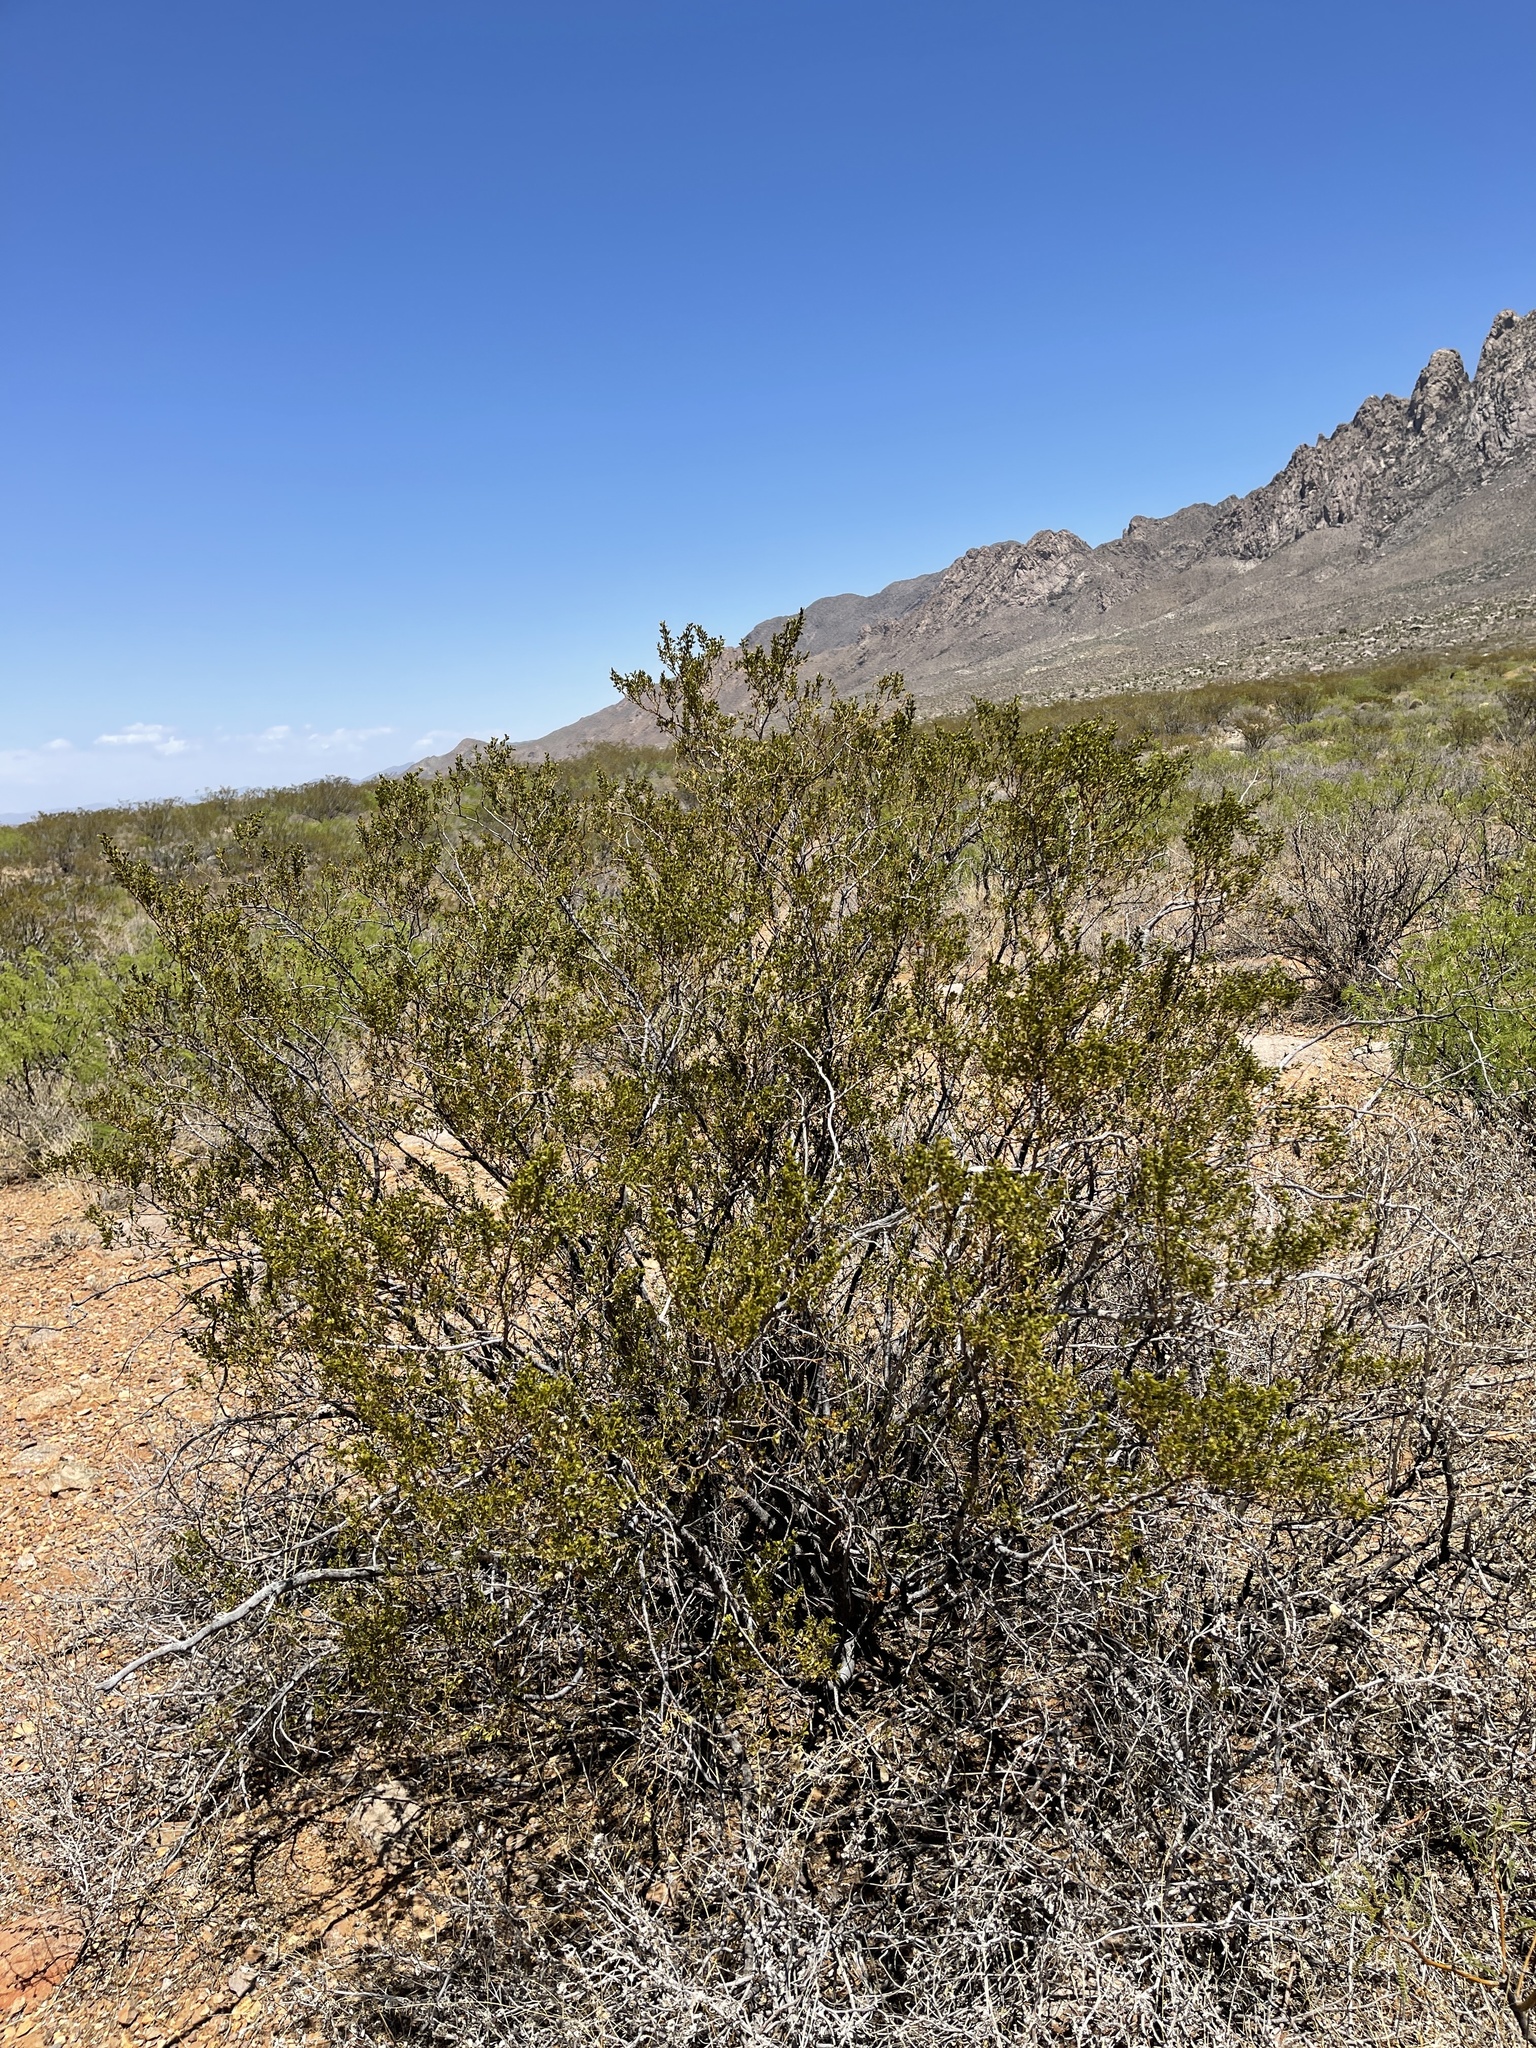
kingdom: Plantae
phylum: Tracheophyta
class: Magnoliopsida
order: Zygophyllales
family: Zygophyllaceae
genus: Larrea
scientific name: Larrea tridentata
